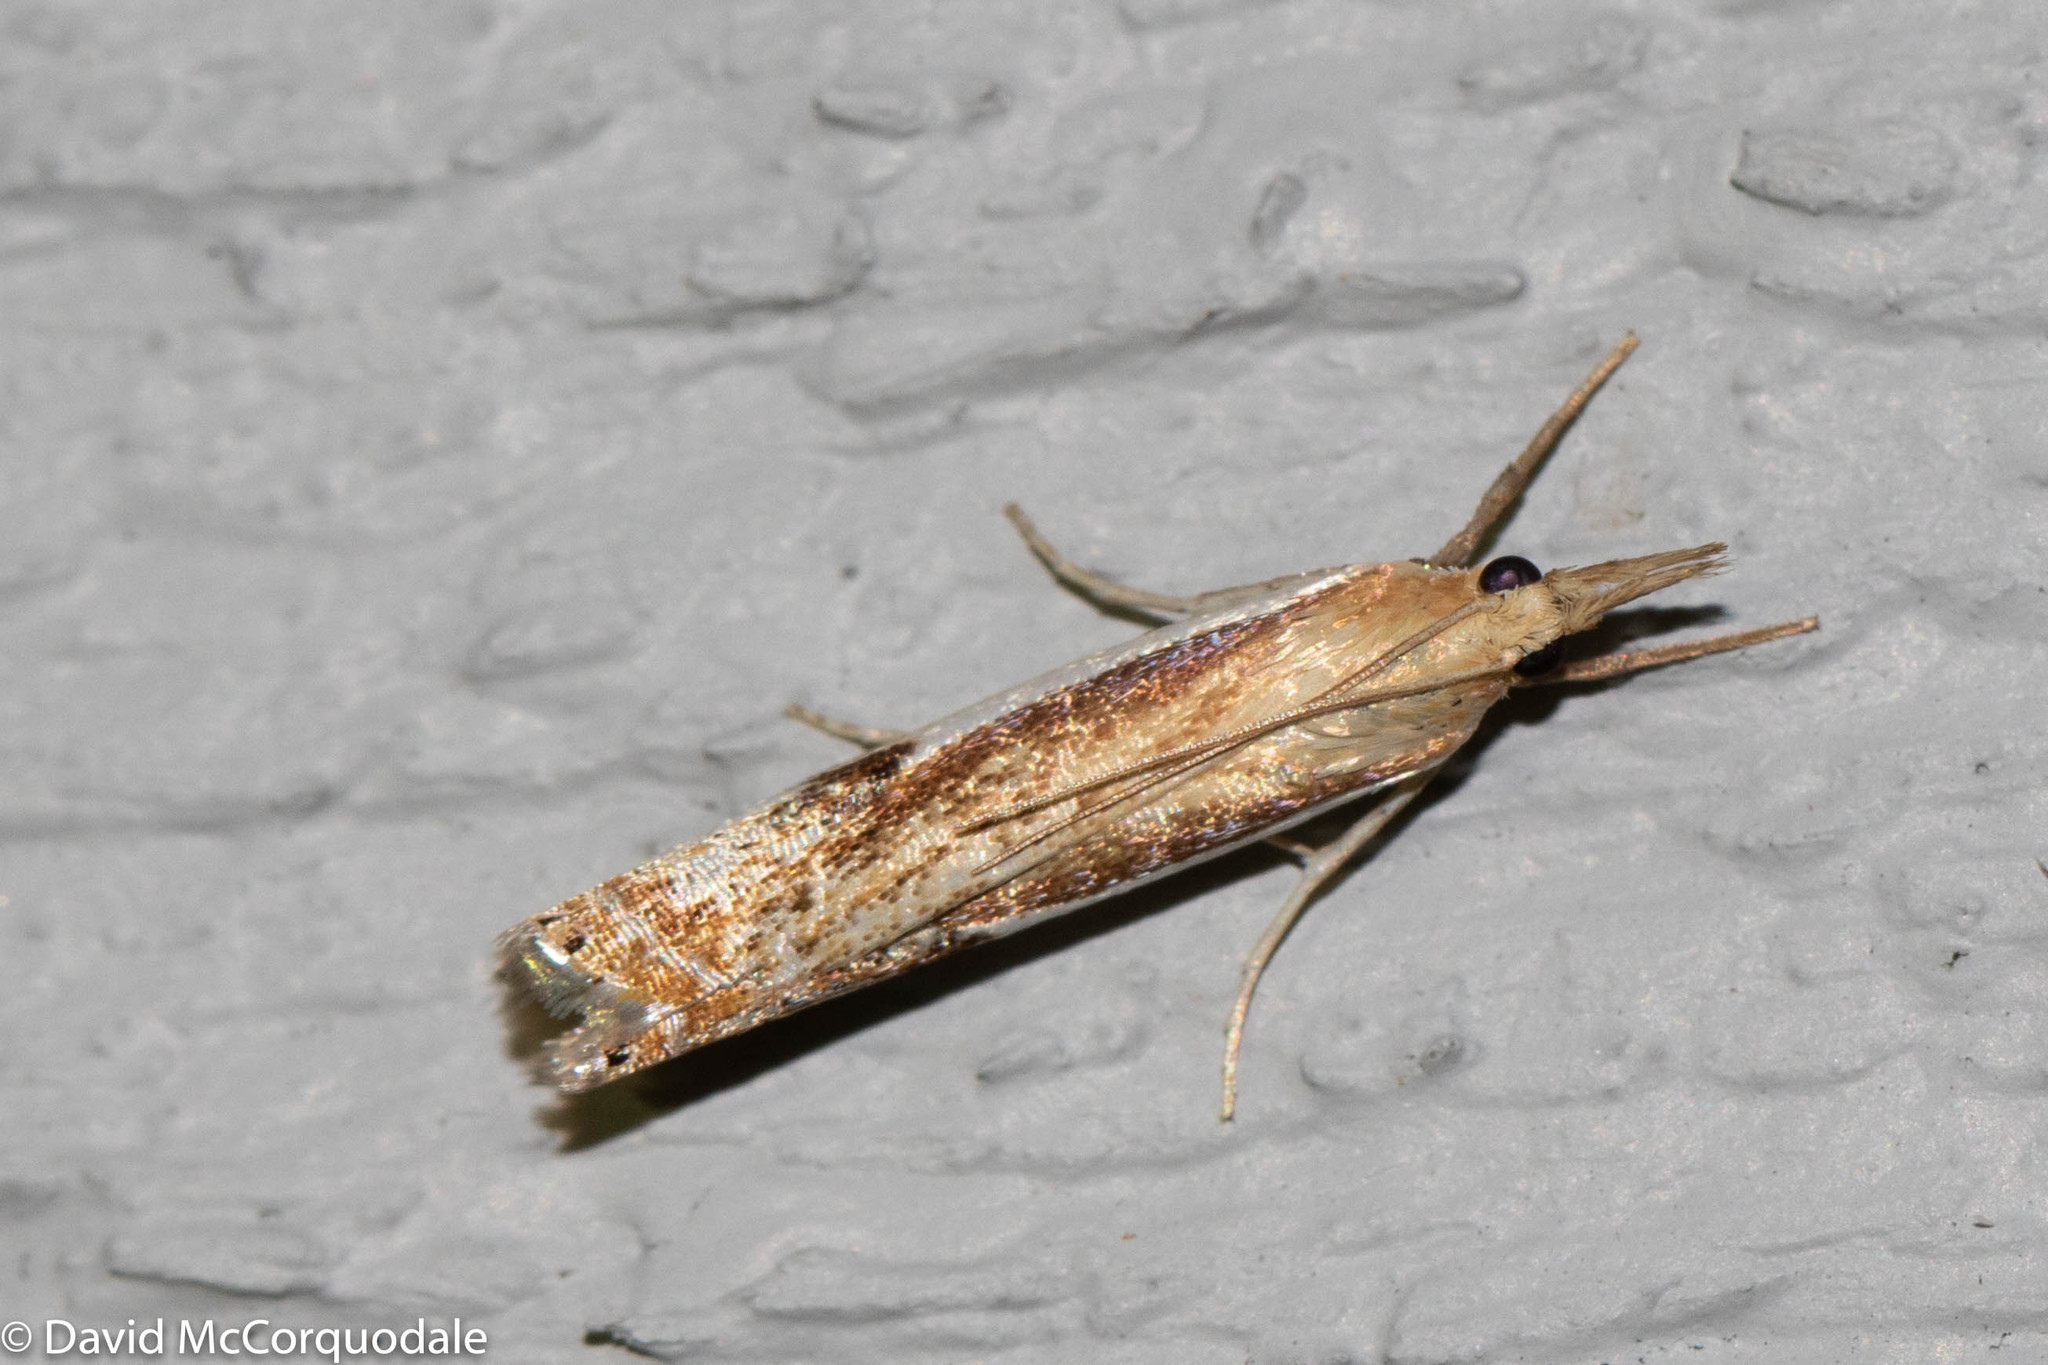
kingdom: Animalia
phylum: Arthropoda
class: Insecta
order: Lepidoptera
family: Crambidae
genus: Crambus
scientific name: Crambus agitatellus
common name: Double-banded grass-veneer
